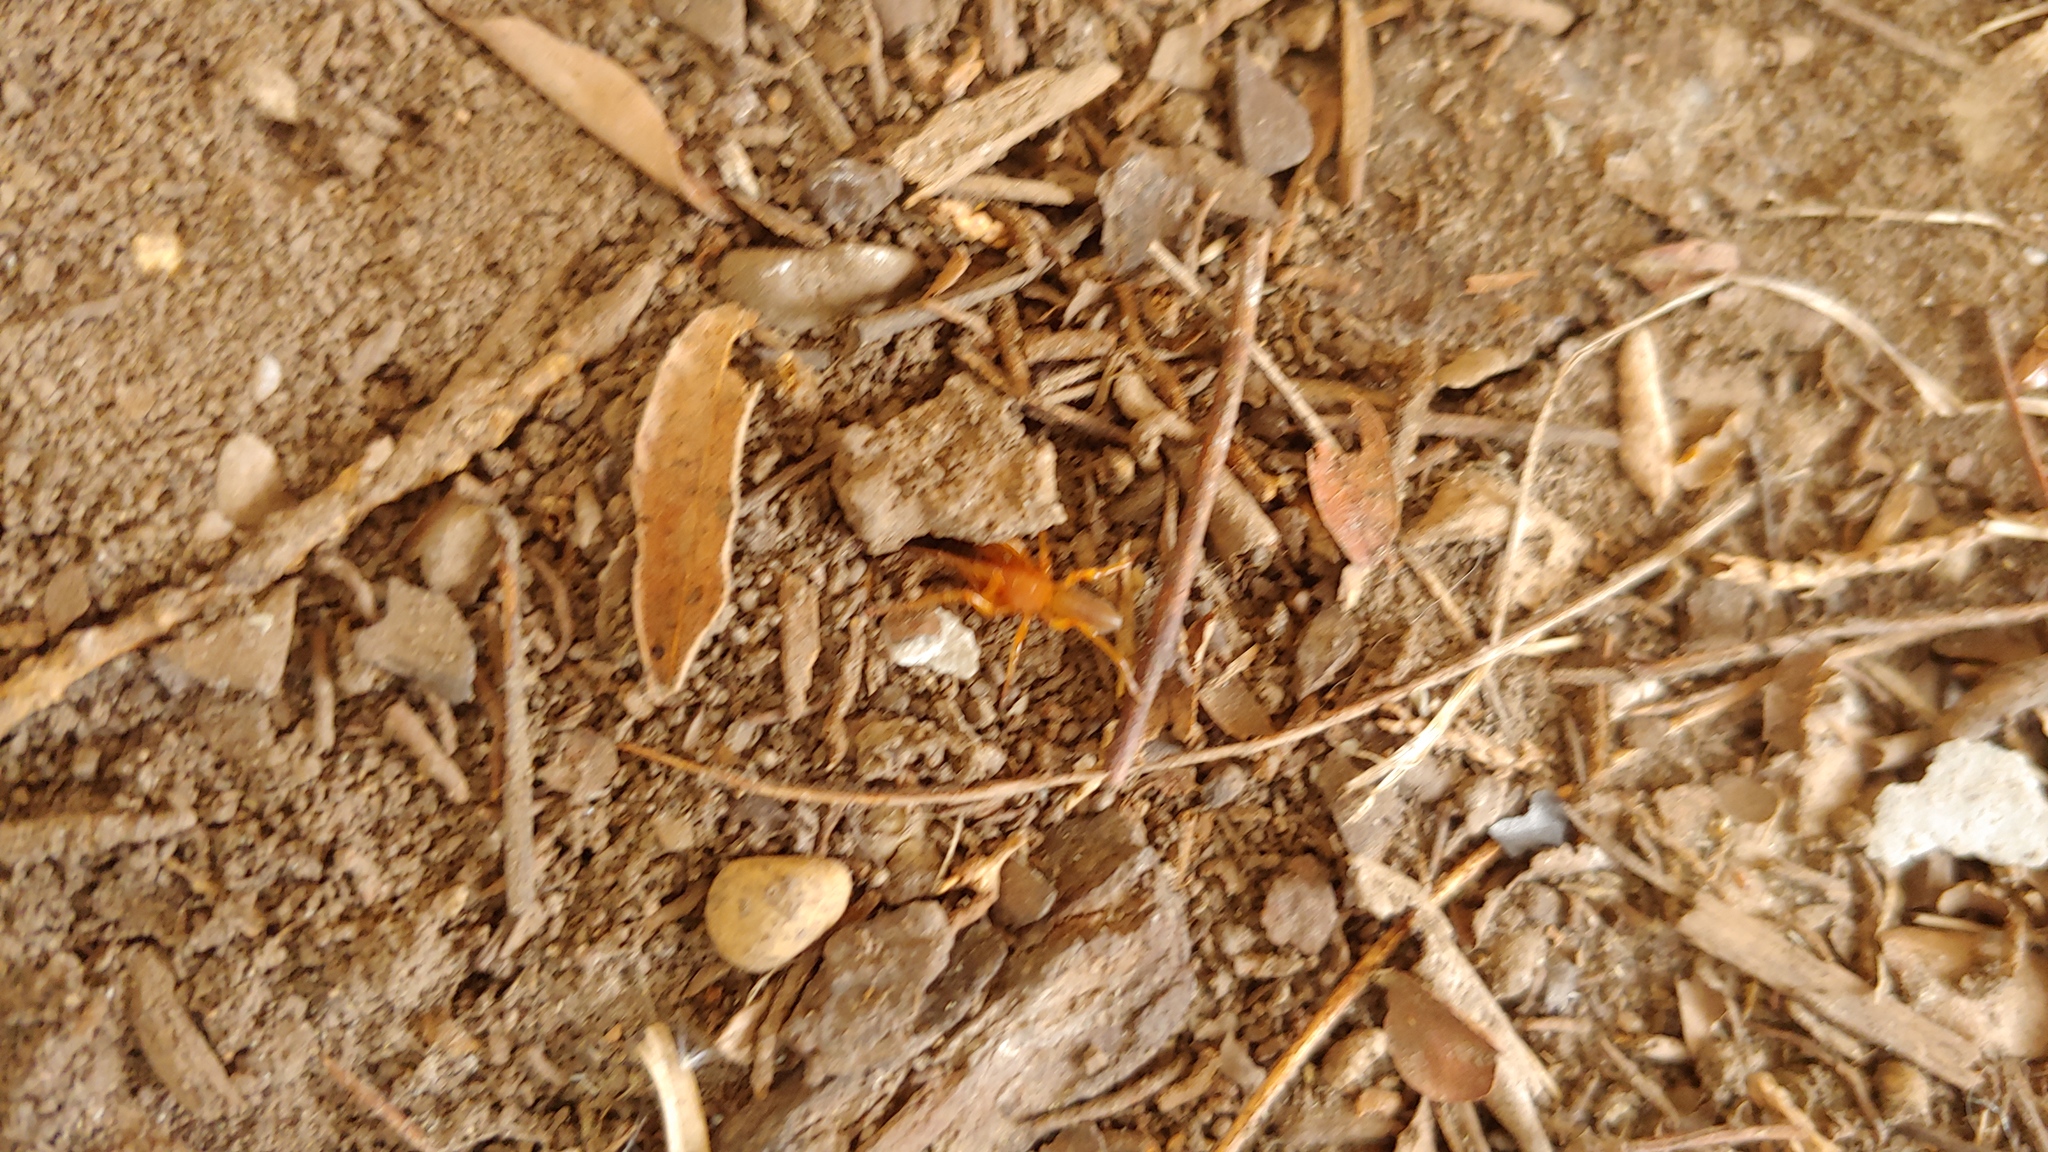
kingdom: Animalia
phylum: Arthropoda
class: Arachnida
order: Araneae
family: Dysderidae
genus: Dysdera
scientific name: Dysdera crocata
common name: Woodlouse spider
